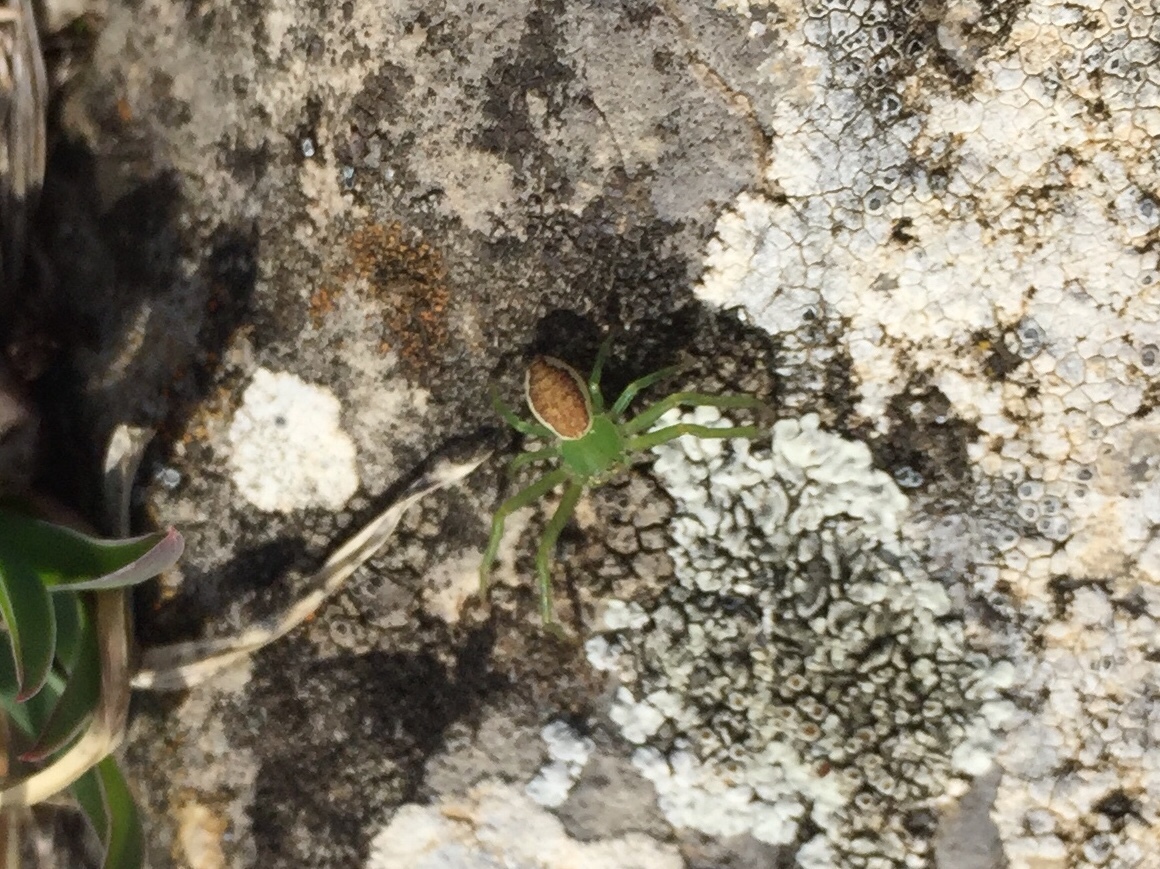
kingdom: Animalia
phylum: Arthropoda
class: Arachnida
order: Araneae
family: Thomisidae
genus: Diaea
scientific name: Diaea dorsata
